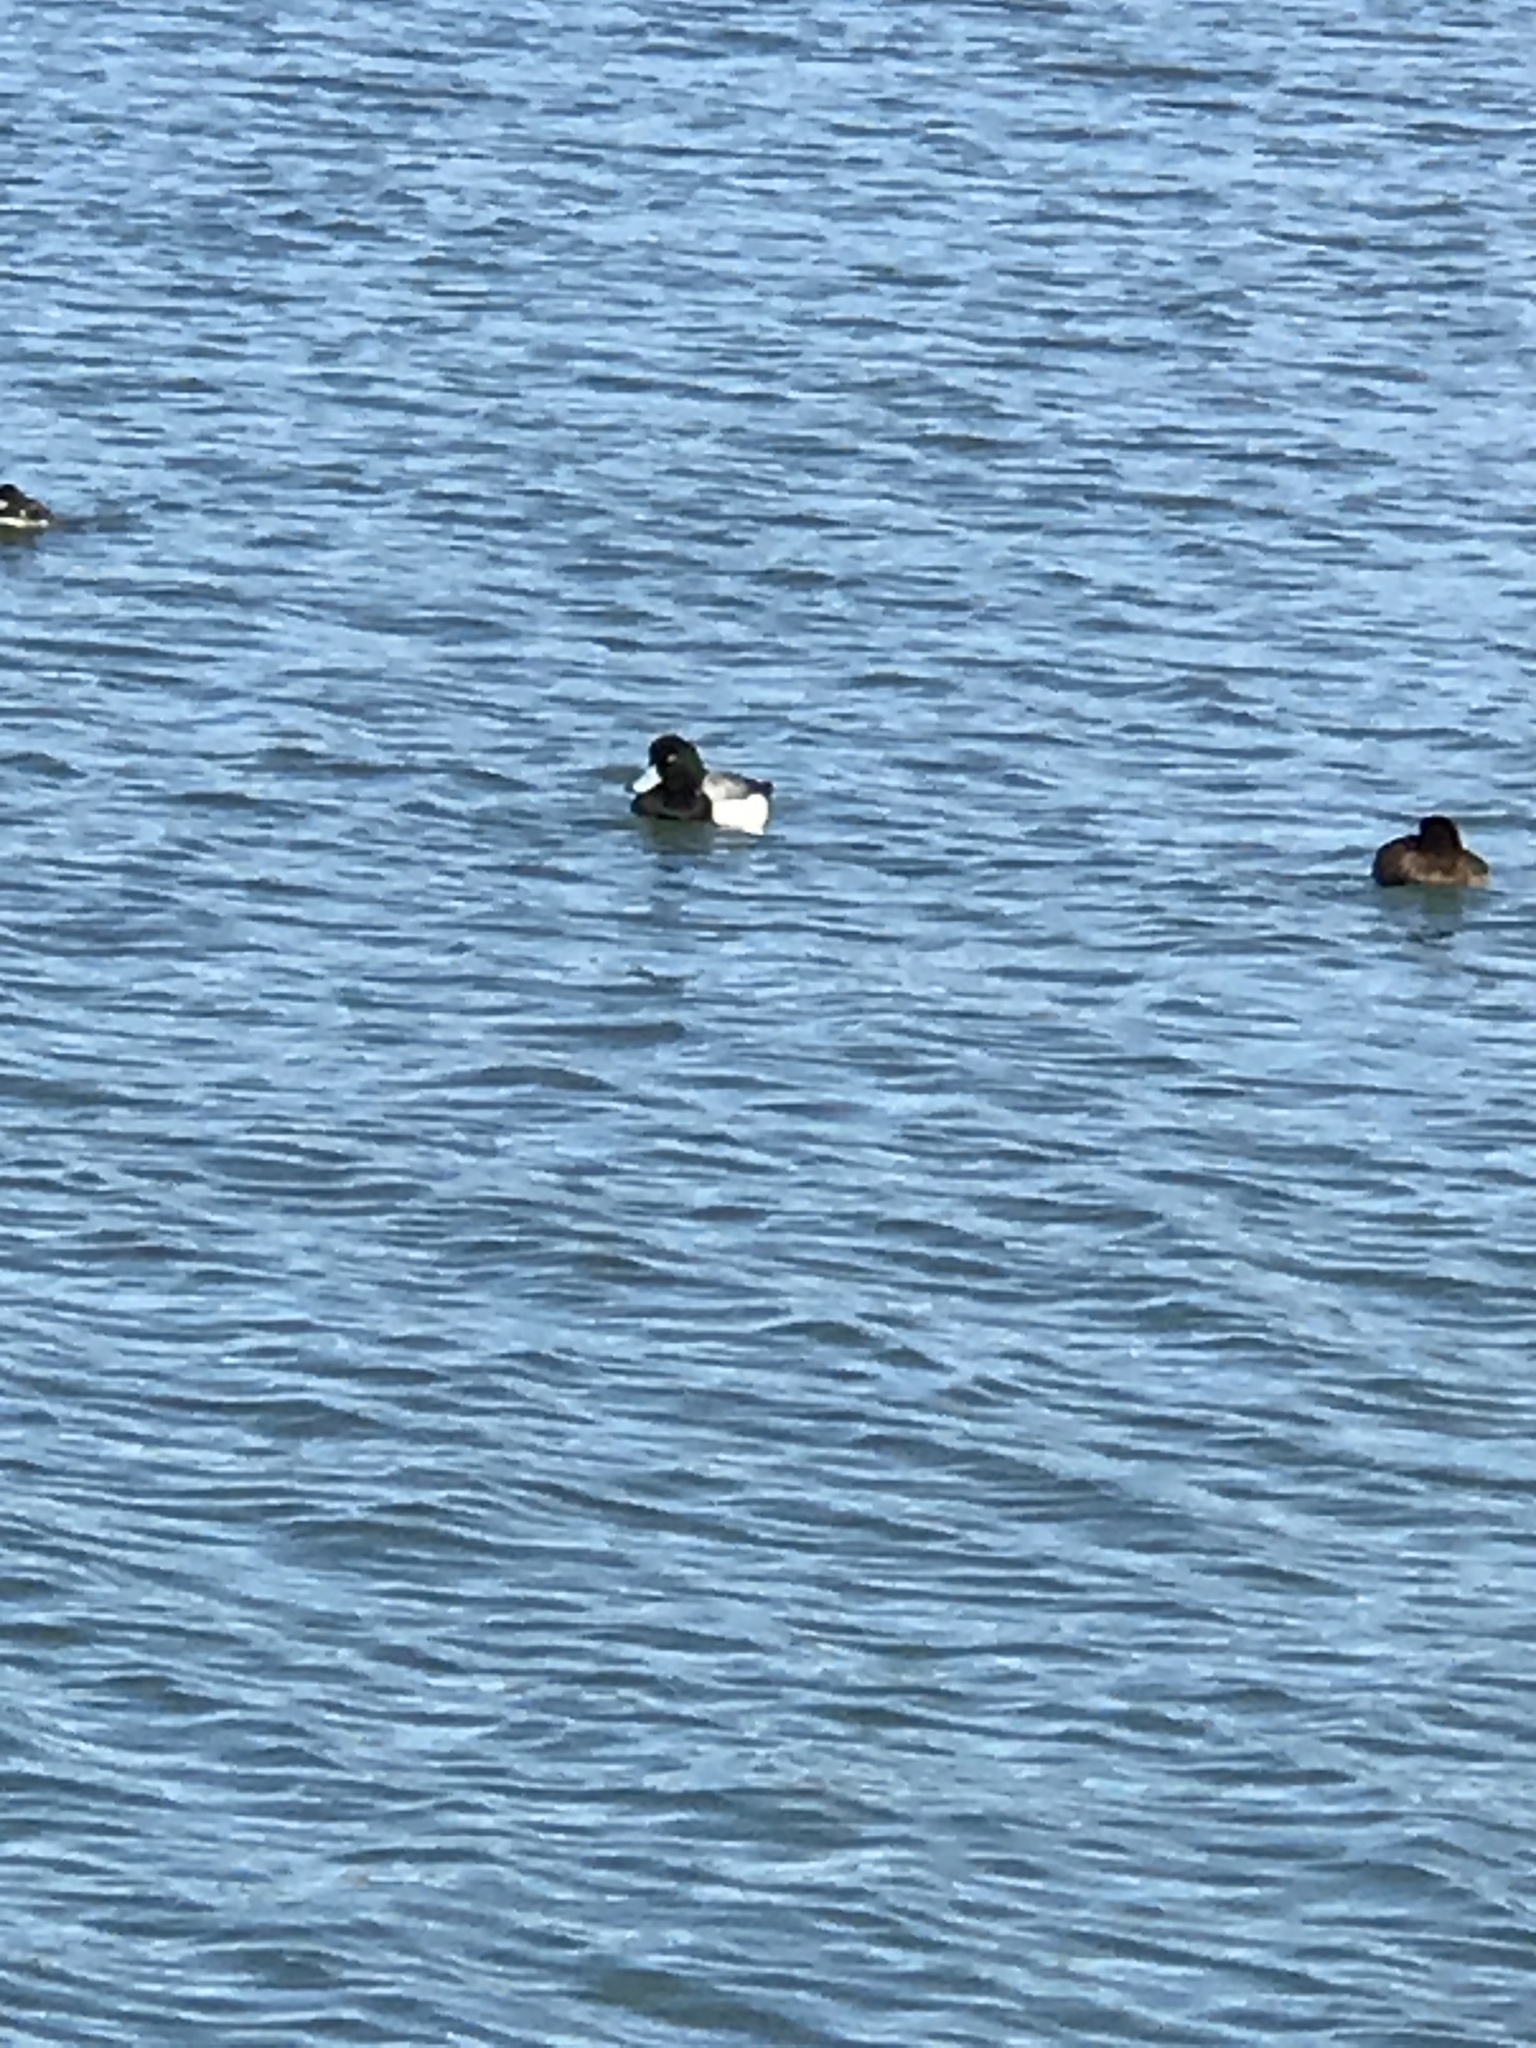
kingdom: Animalia
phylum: Chordata
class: Aves
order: Anseriformes
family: Anatidae
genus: Aythya
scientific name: Aythya marila
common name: Greater scaup
